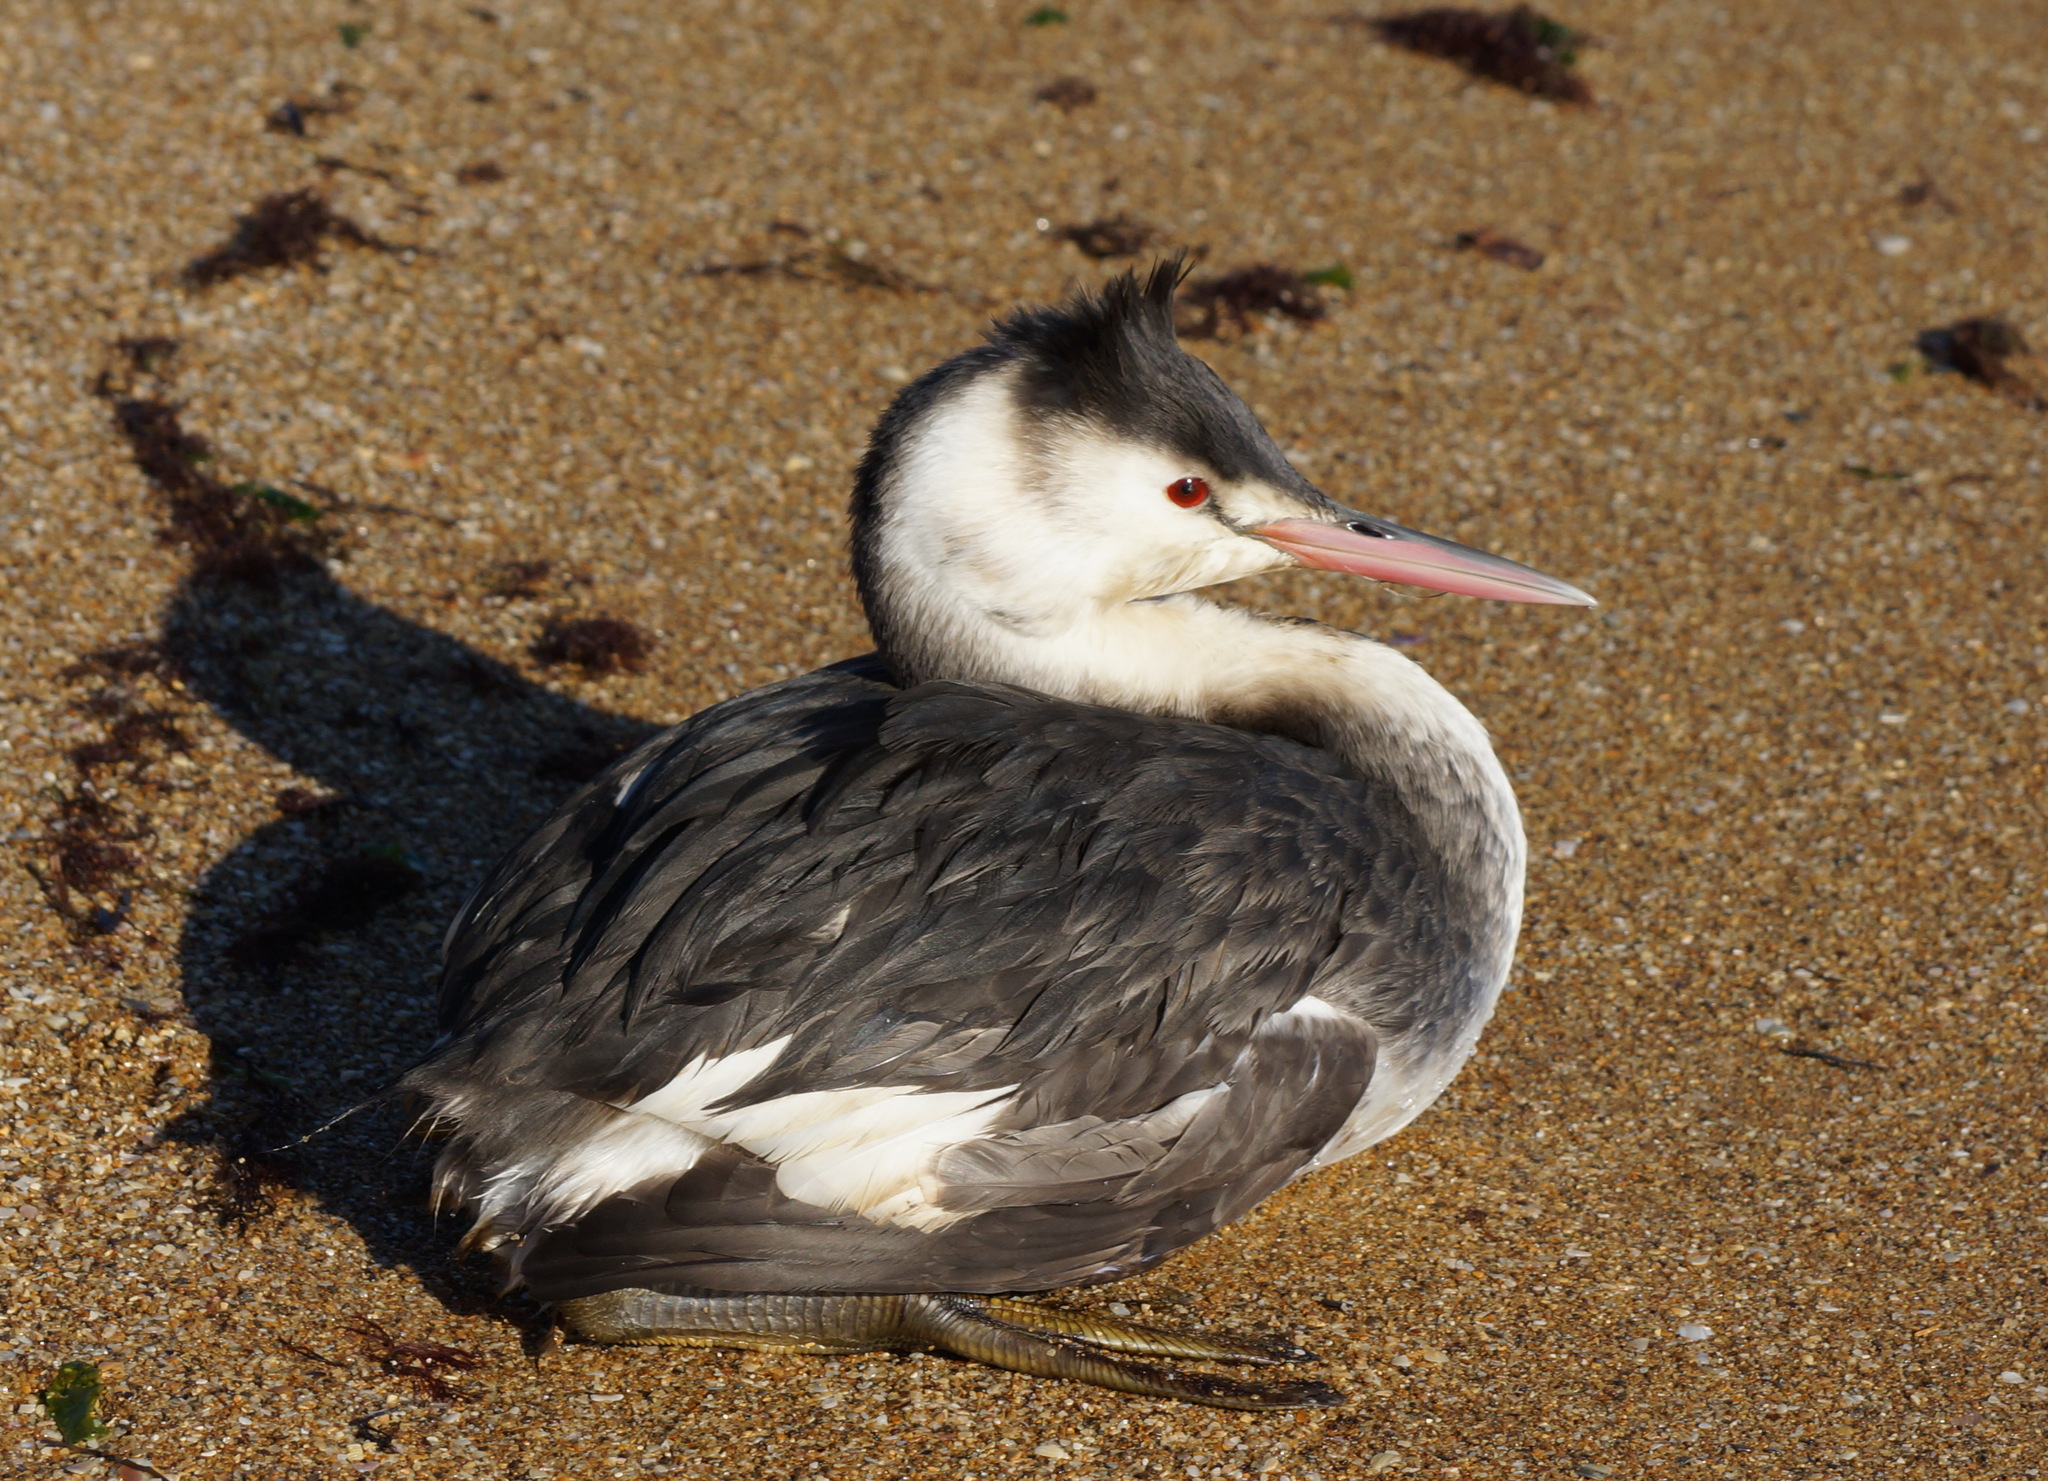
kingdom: Animalia
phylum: Chordata
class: Aves
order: Podicipediformes
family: Podicipedidae
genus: Podiceps
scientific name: Podiceps cristatus
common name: Great crested grebe
